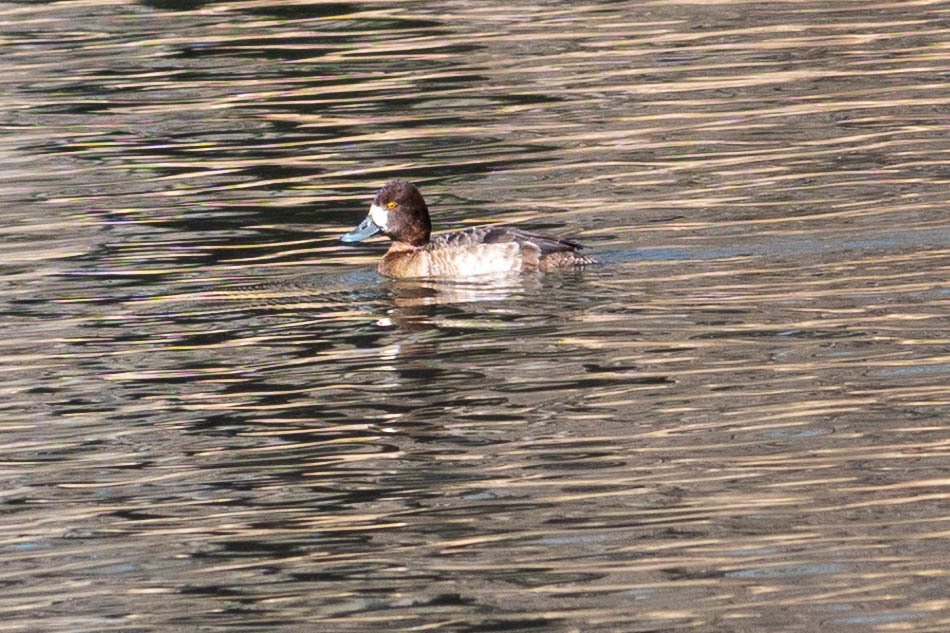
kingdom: Animalia
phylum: Chordata
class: Aves
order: Anseriformes
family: Anatidae
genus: Aythya
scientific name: Aythya affinis
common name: Lesser scaup
